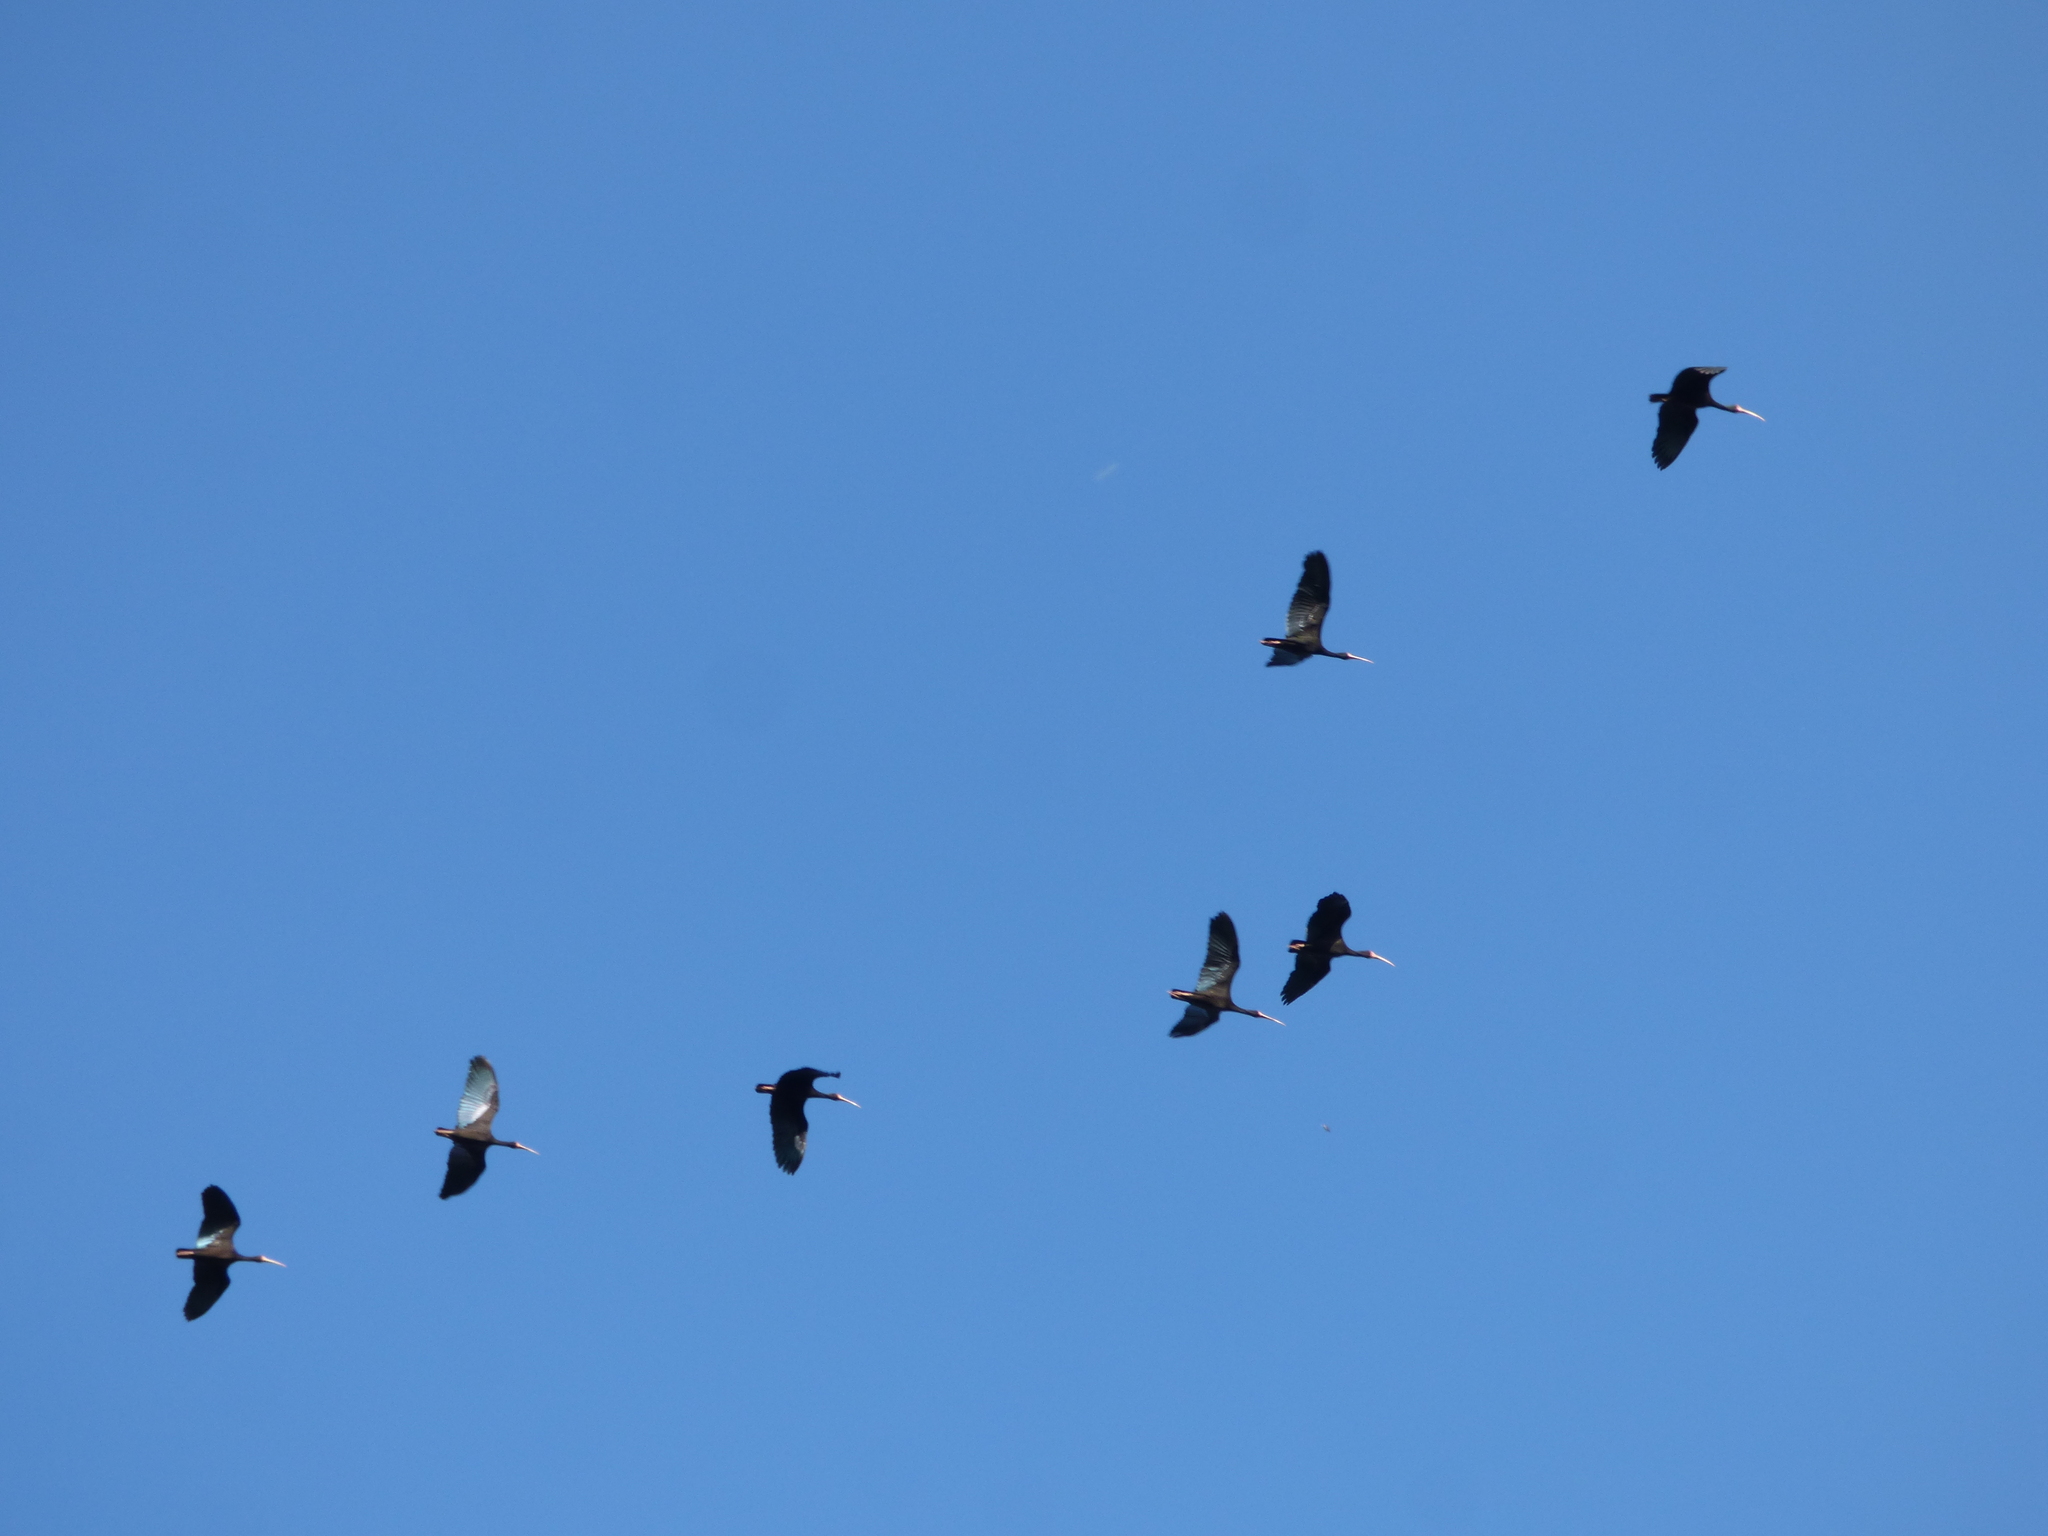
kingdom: Animalia
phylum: Chordata
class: Aves
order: Pelecaniformes
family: Threskiornithidae
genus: Phimosus
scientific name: Phimosus infuscatus
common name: Bare-faced ibis
